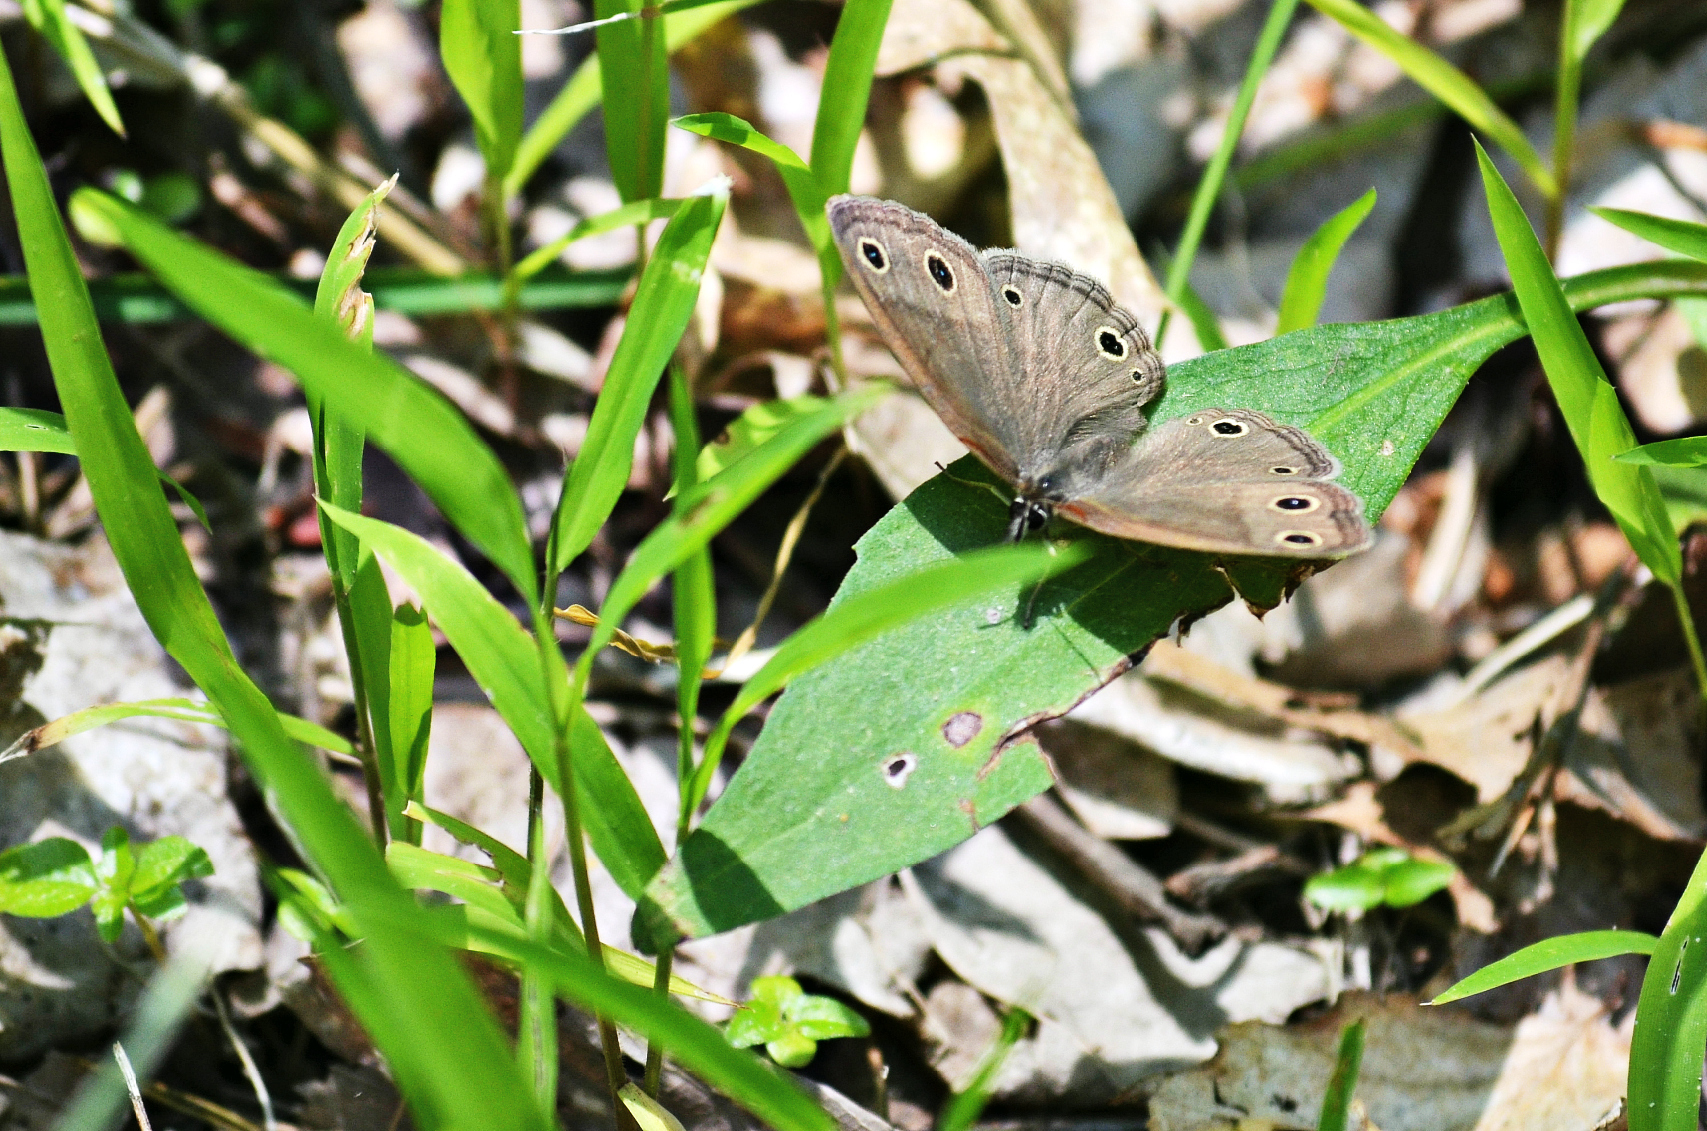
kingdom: Animalia
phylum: Arthropoda
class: Insecta
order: Lepidoptera
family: Nymphalidae
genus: Euptychia
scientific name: Euptychia cymela
